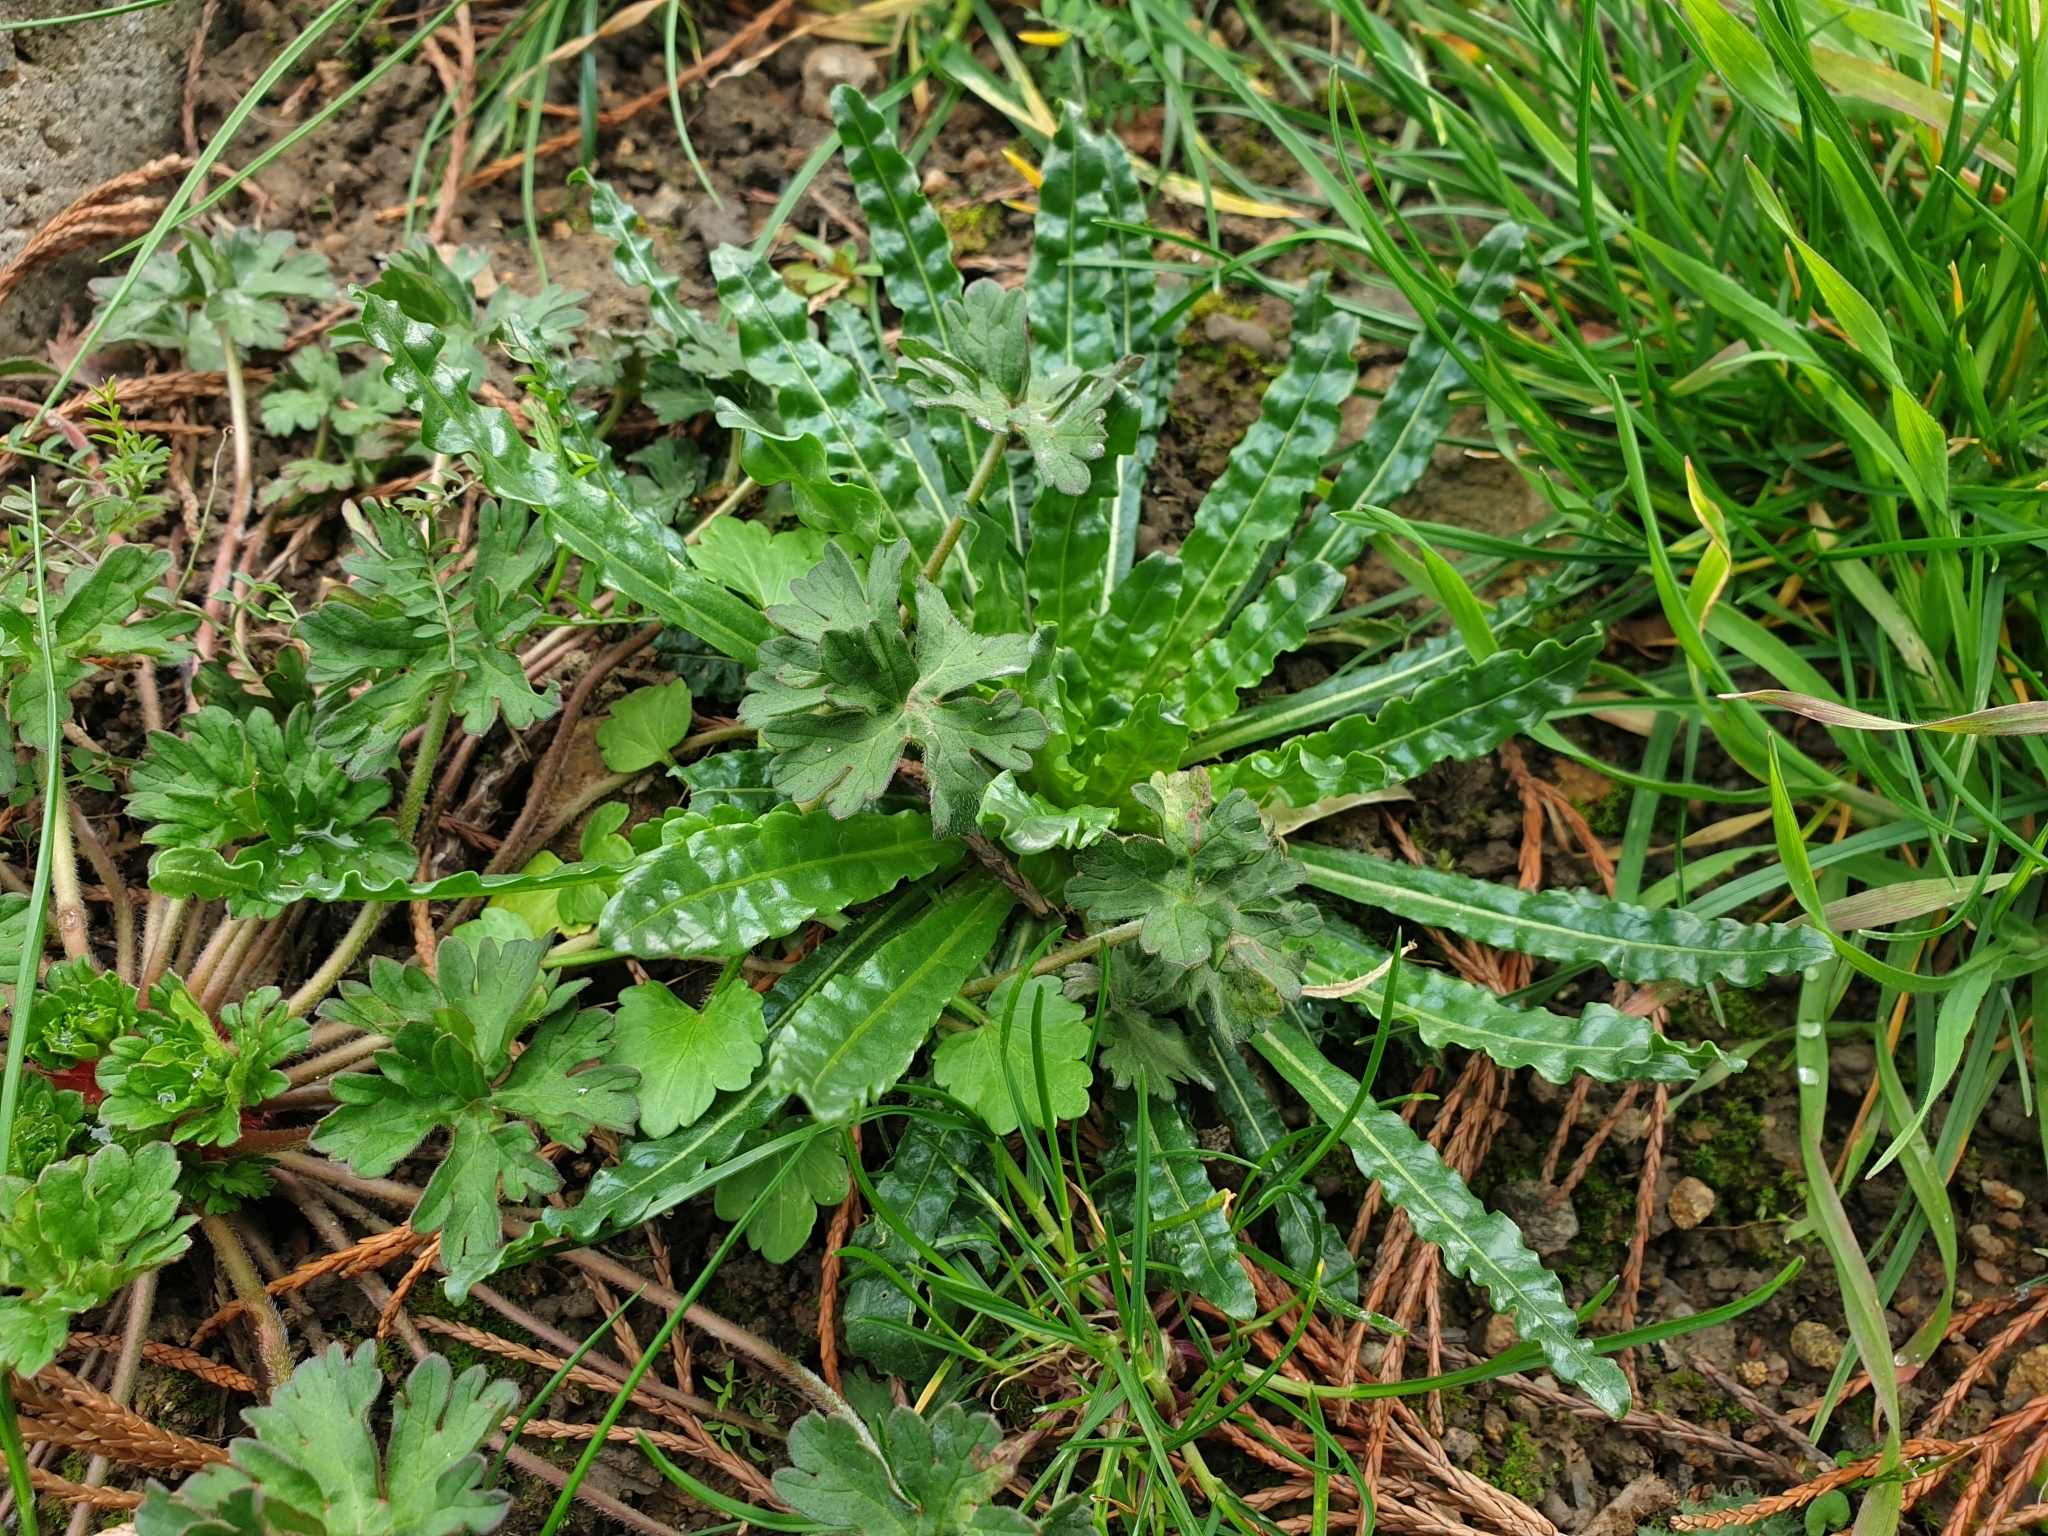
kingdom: Plantae
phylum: Tracheophyta
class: Magnoliopsida
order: Brassicales
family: Resedaceae
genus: Reseda
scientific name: Reseda luteola
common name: Weld
